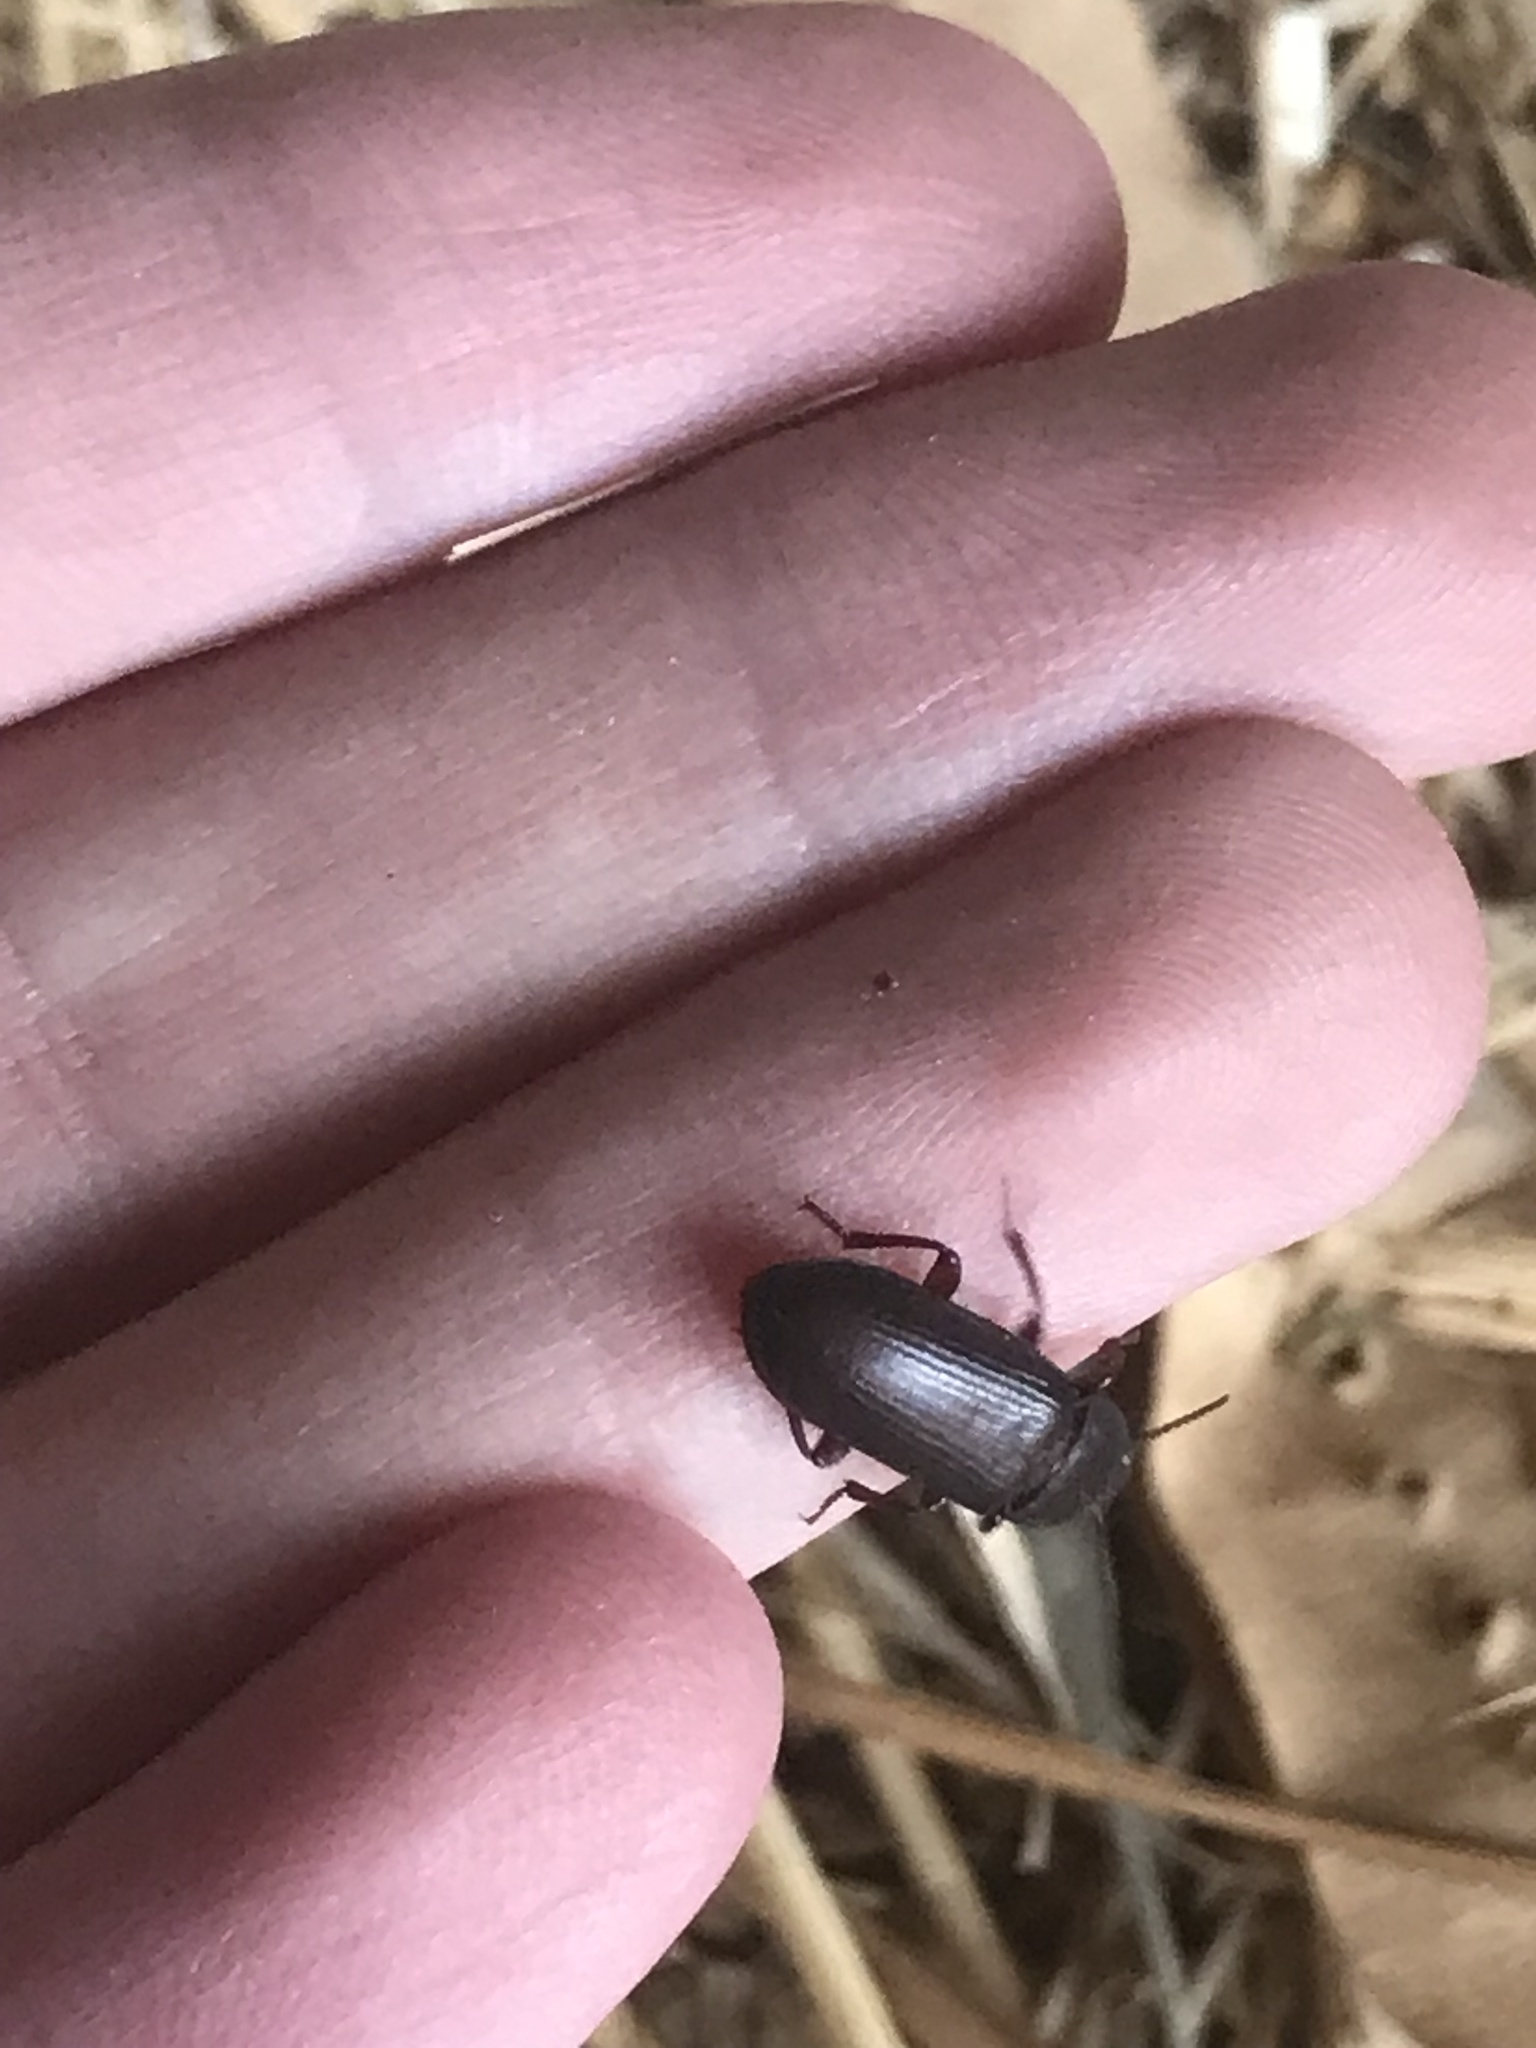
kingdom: Animalia
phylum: Arthropoda
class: Insecta
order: Coleoptera
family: Tenebrionidae
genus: Tenebrio
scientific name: Tenebrio molitor
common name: Hardback beetle
